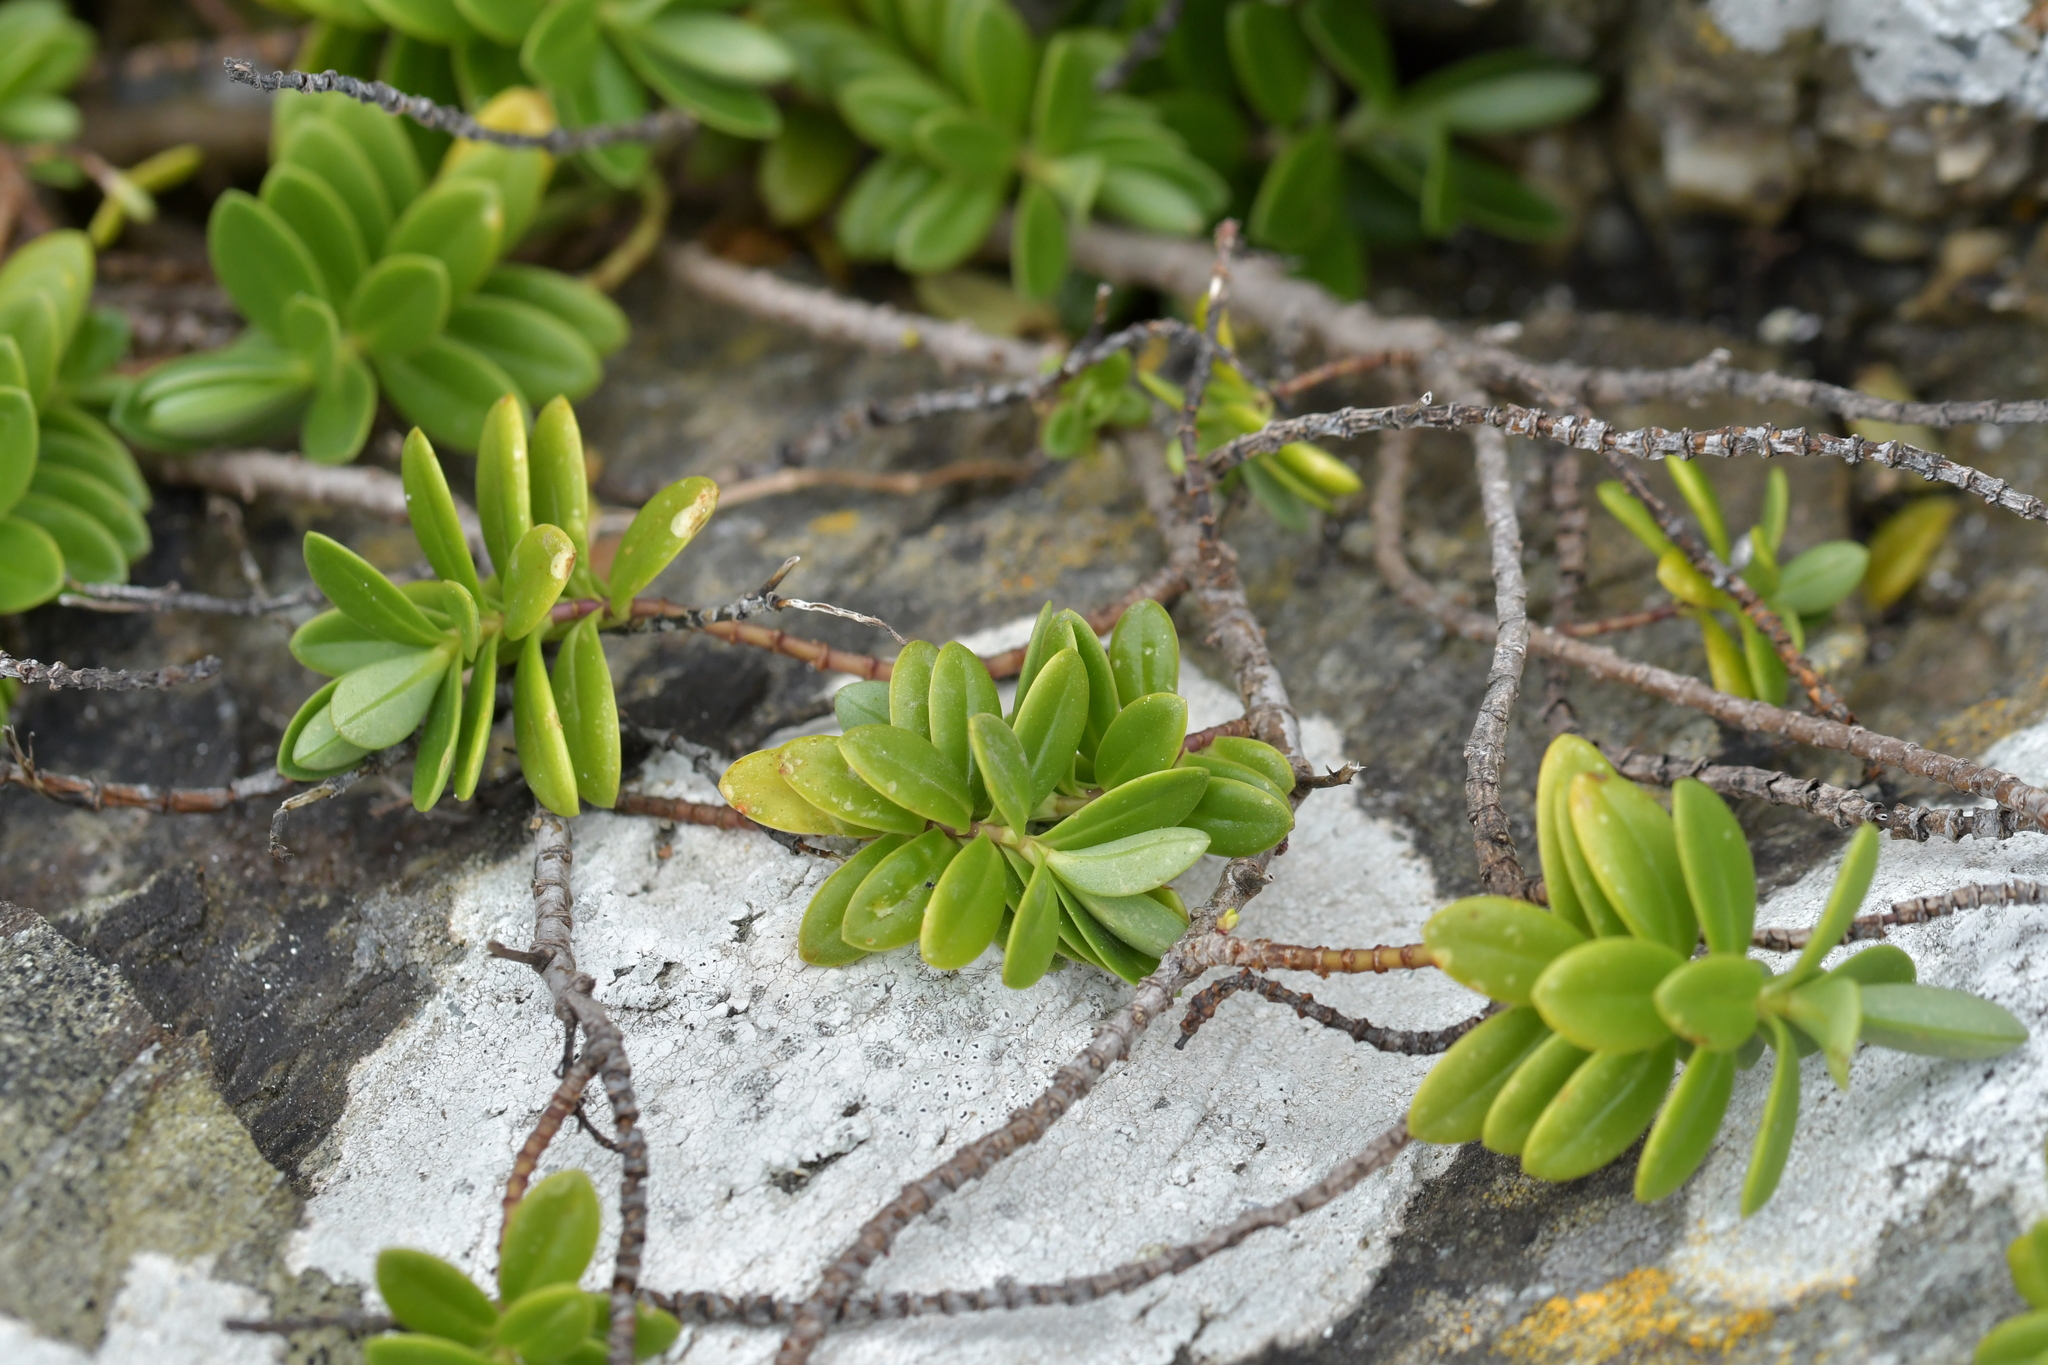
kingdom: Plantae
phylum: Tracheophyta
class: Magnoliopsida
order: Lamiales
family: Plantaginaceae
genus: Veronica
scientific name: Veronica chathamica
